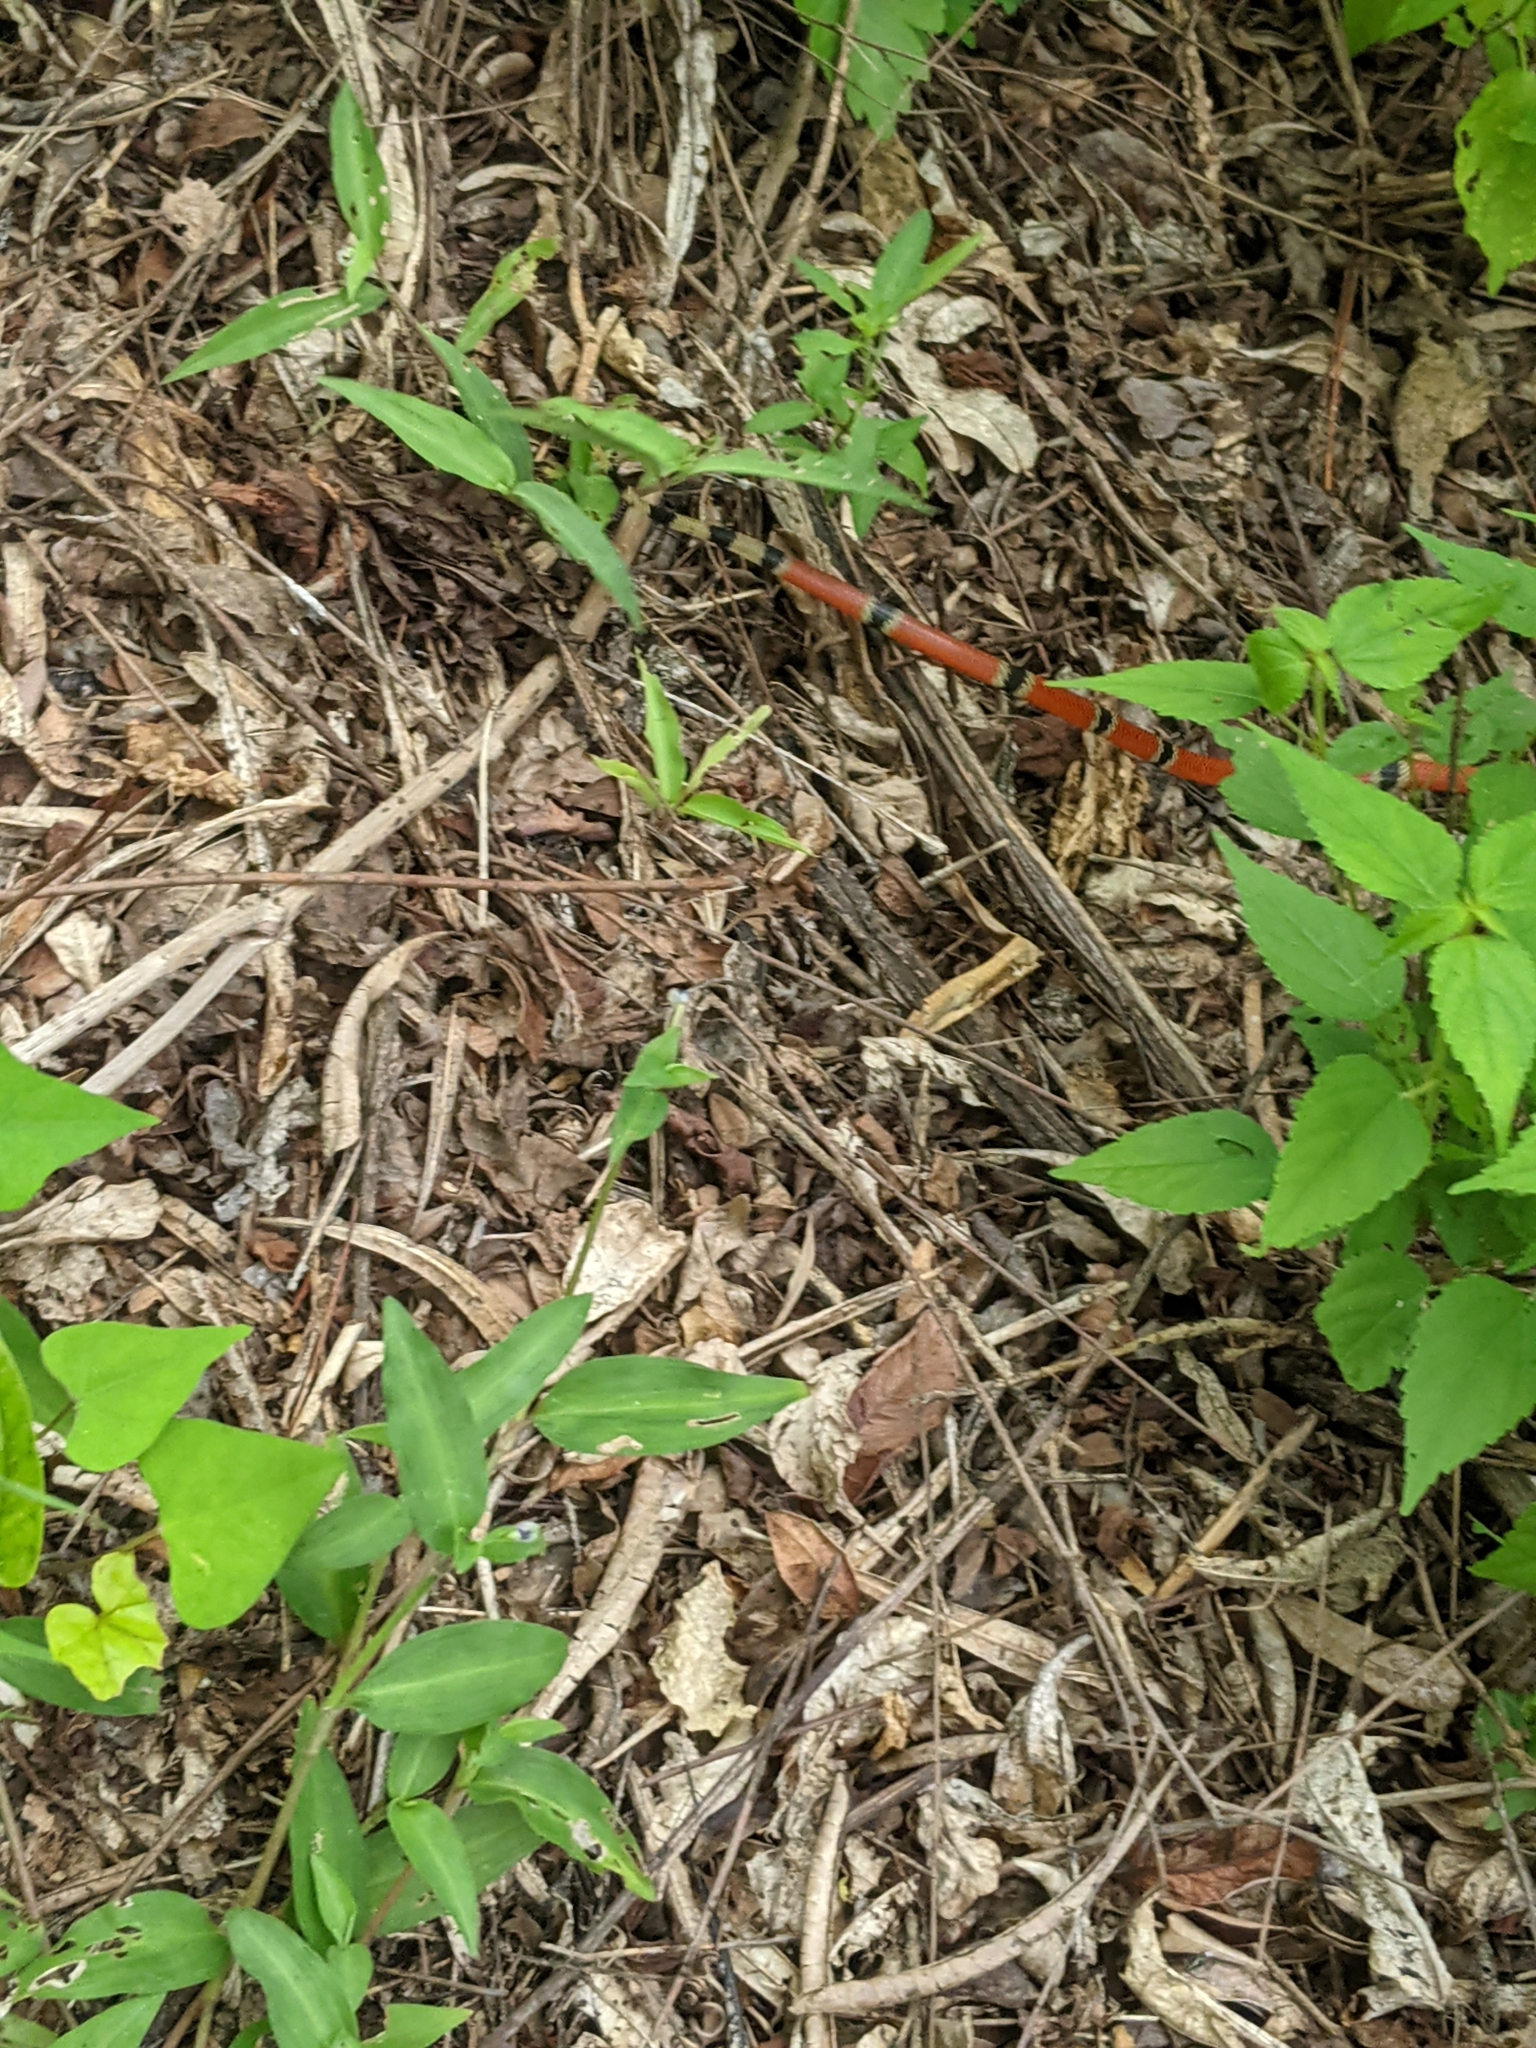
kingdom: Animalia
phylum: Chordata
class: Squamata
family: Elapidae
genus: Micrurus
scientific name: Micrurus distans
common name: Clear-banded coral snake
